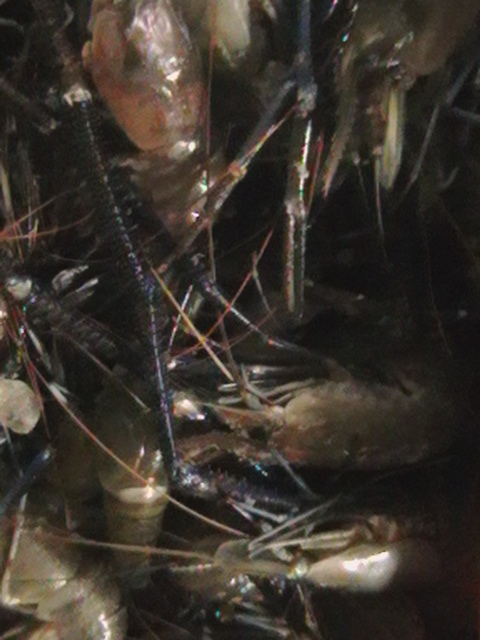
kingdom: Animalia
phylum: Arthropoda
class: Malacostraca
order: Decapoda
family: Palaemonidae
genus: Macrobrachium
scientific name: Macrobrachium rosenbergii
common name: Giant river prawn
